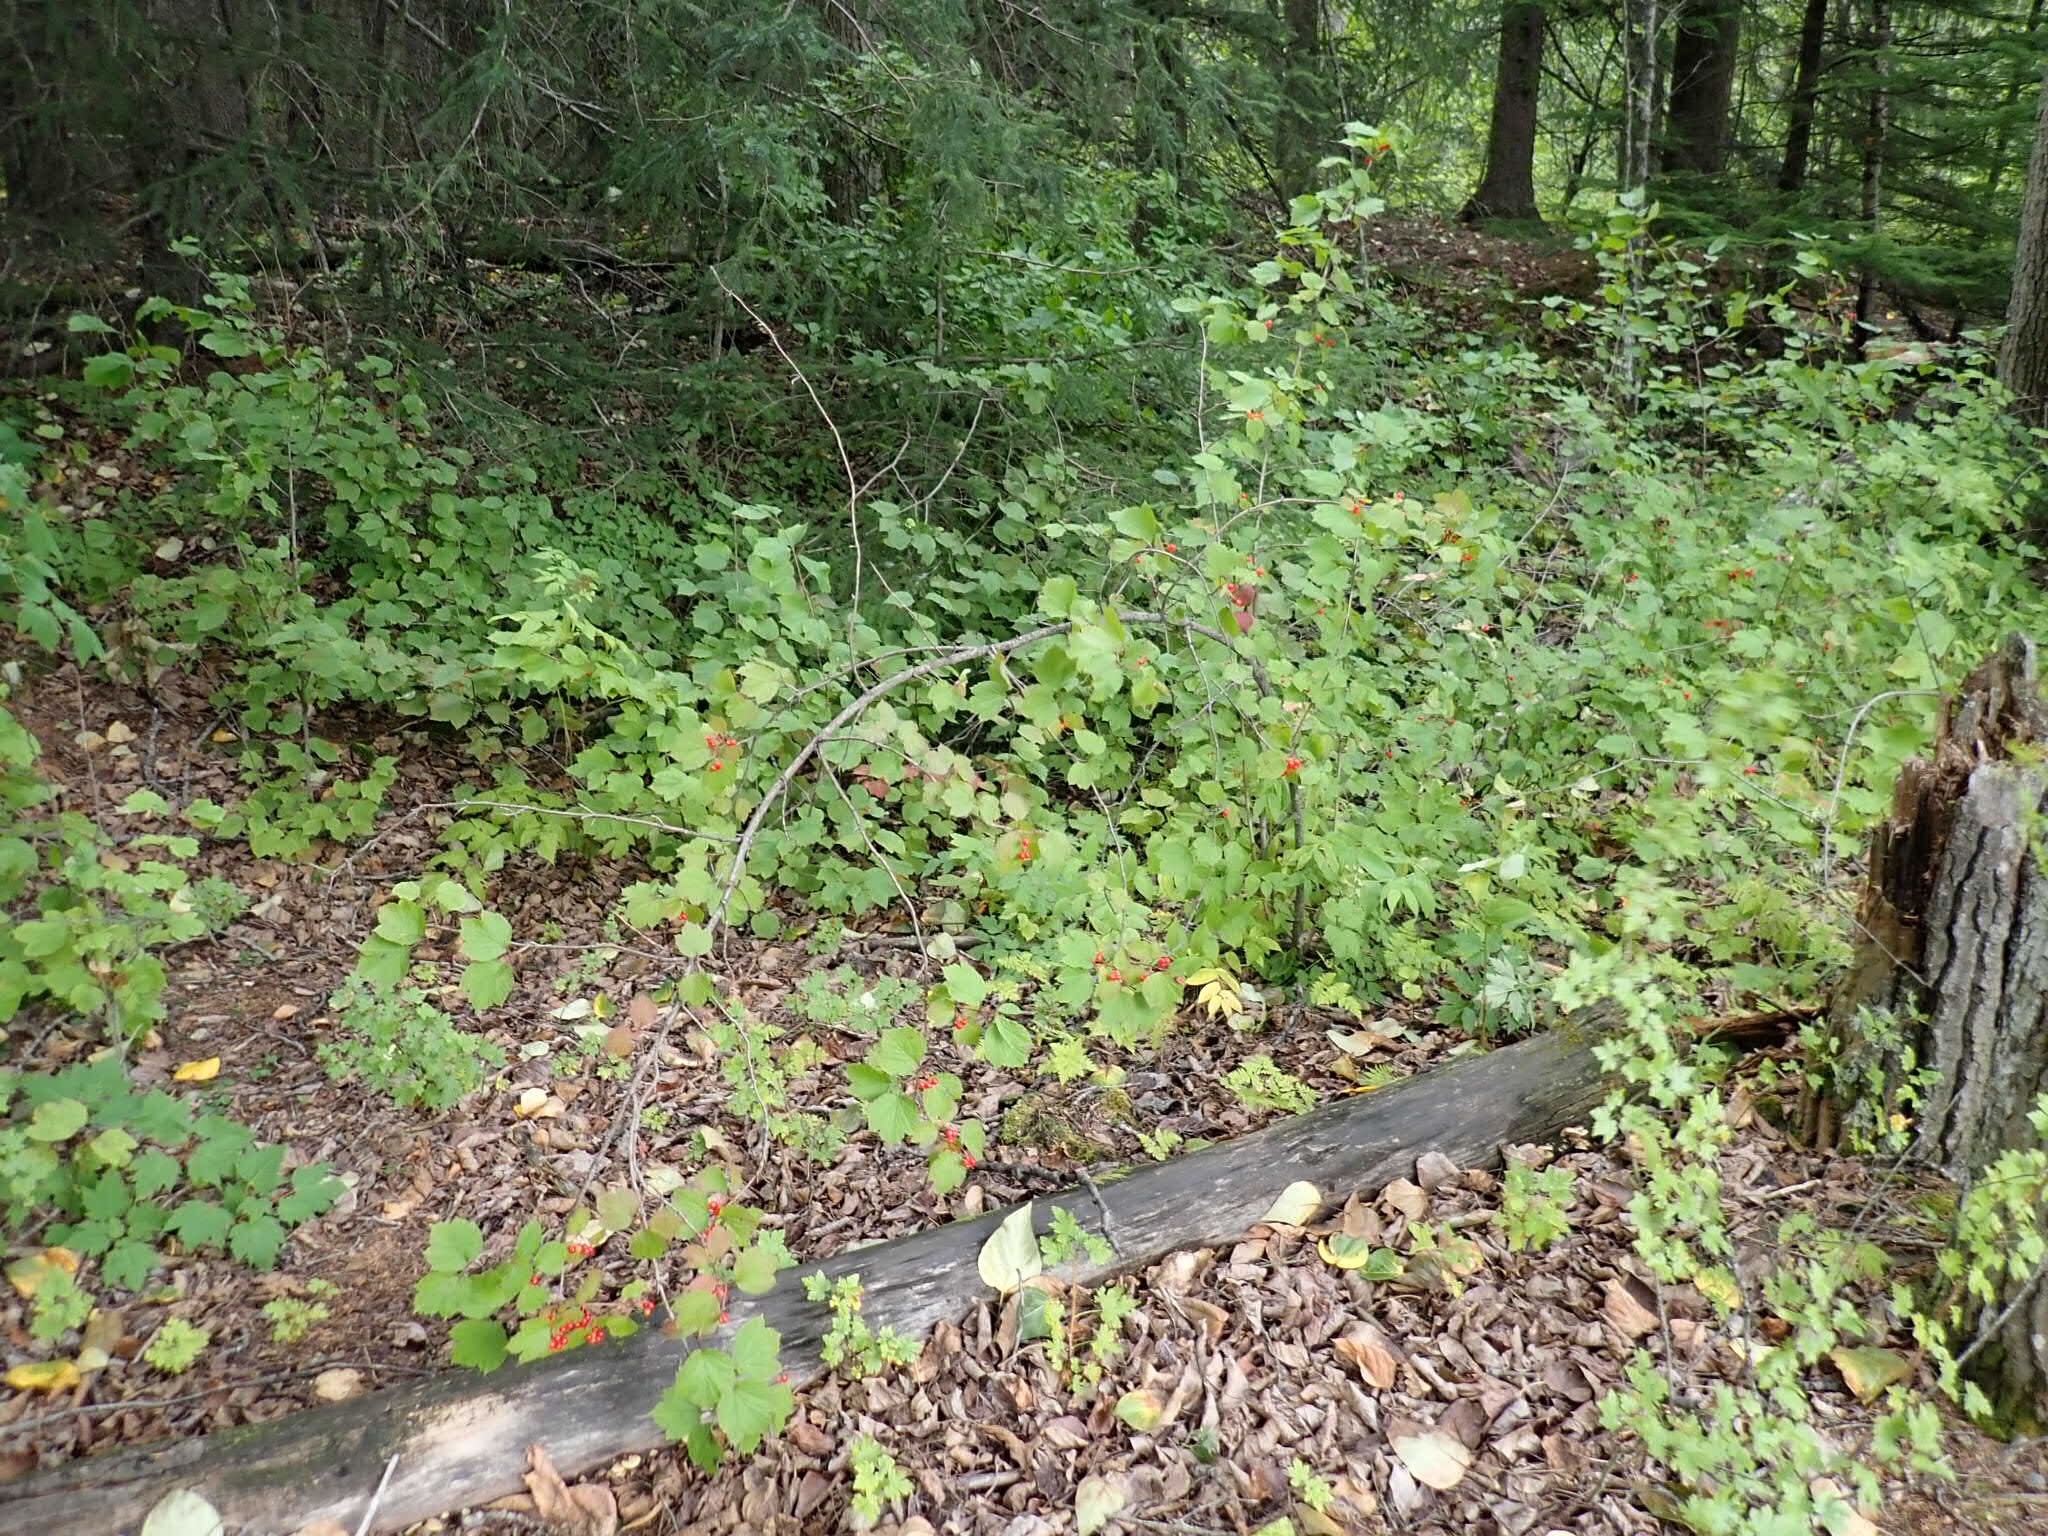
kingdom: Plantae
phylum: Tracheophyta
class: Magnoliopsida
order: Dipsacales
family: Viburnaceae
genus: Viburnum
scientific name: Viburnum edule
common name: Mooseberry
